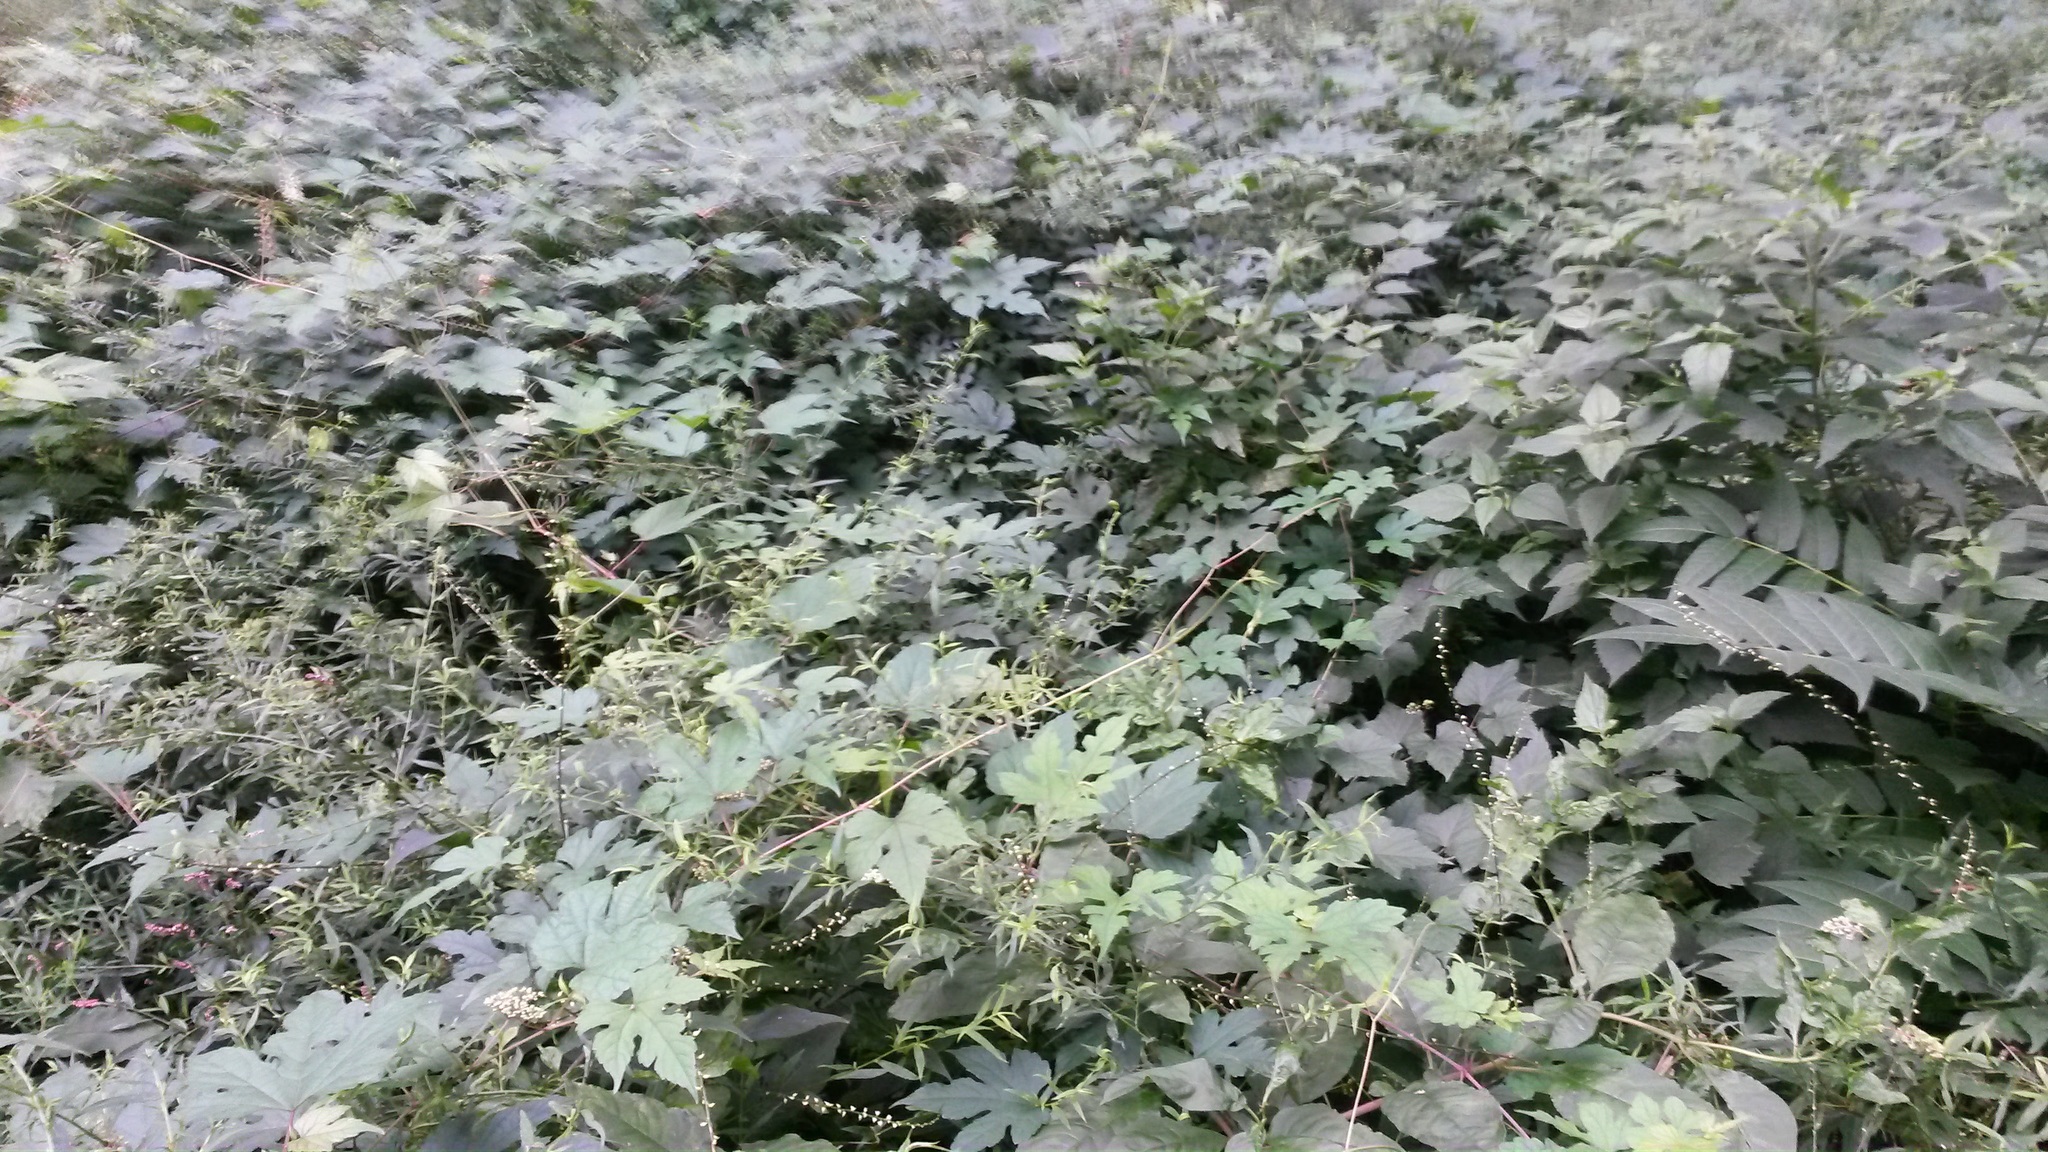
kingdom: Plantae
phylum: Tracheophyta
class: Magnoliopsida
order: Vitales
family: Vitaceae
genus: Ampelopsis
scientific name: Ampelopsis glandulosa
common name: Amur peppervine
